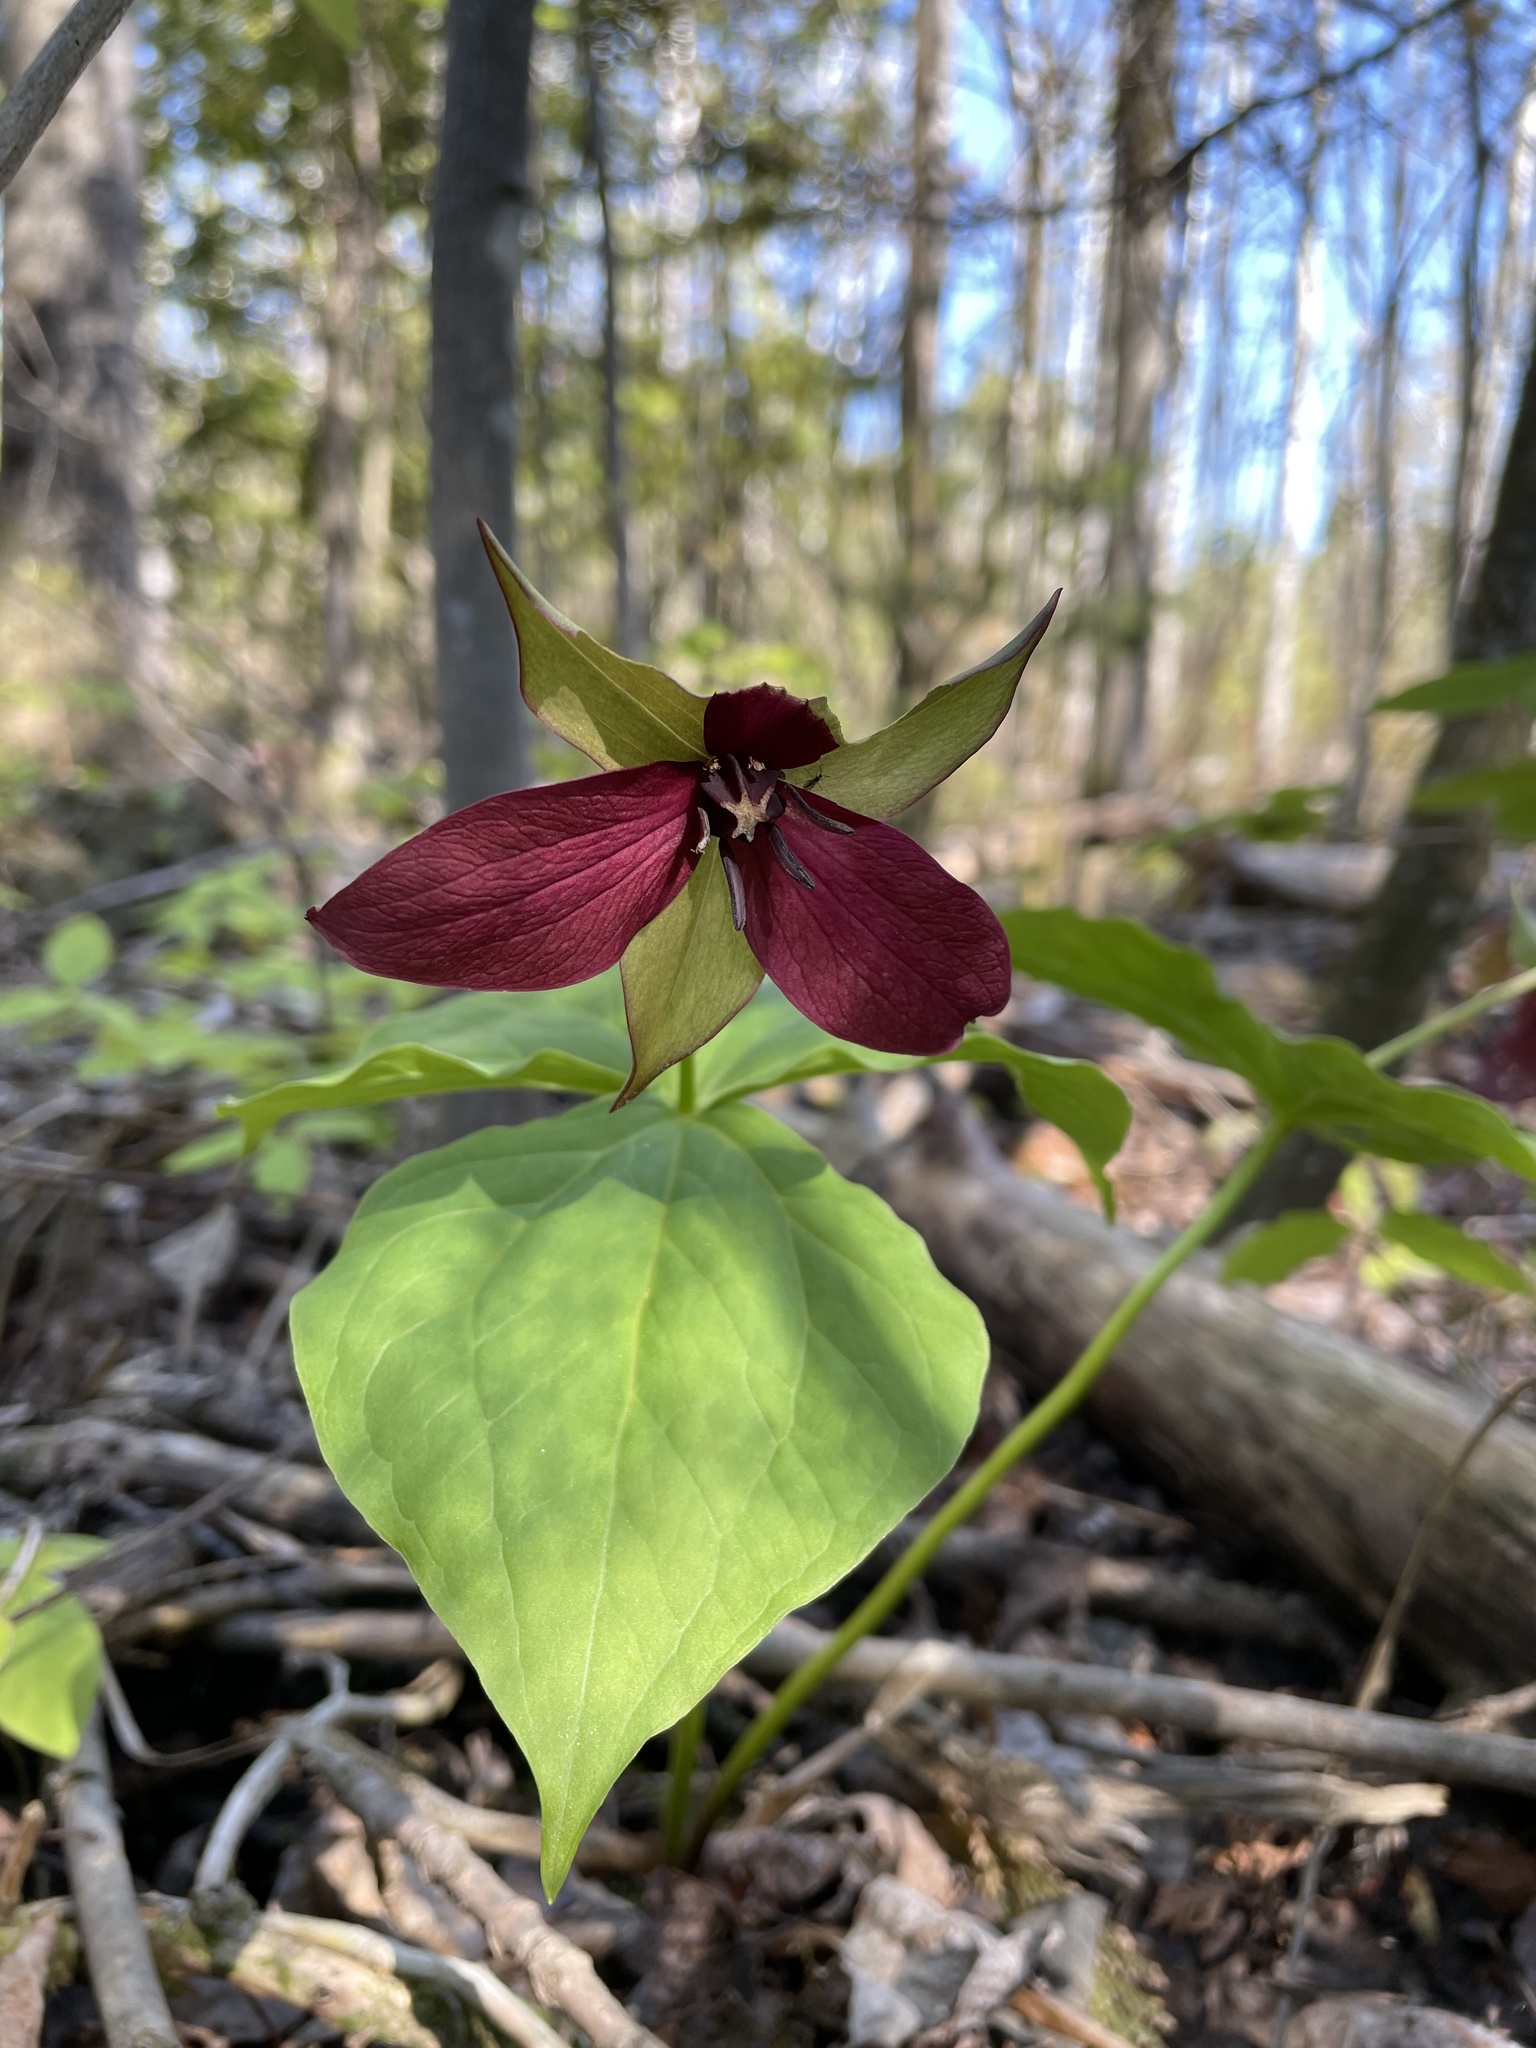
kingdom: Plantae
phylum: Tracheophyta
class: Liliopsida
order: Liliales
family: Melanthiaceae
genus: Trillium
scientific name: Trillium erectum
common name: Purple trillium
